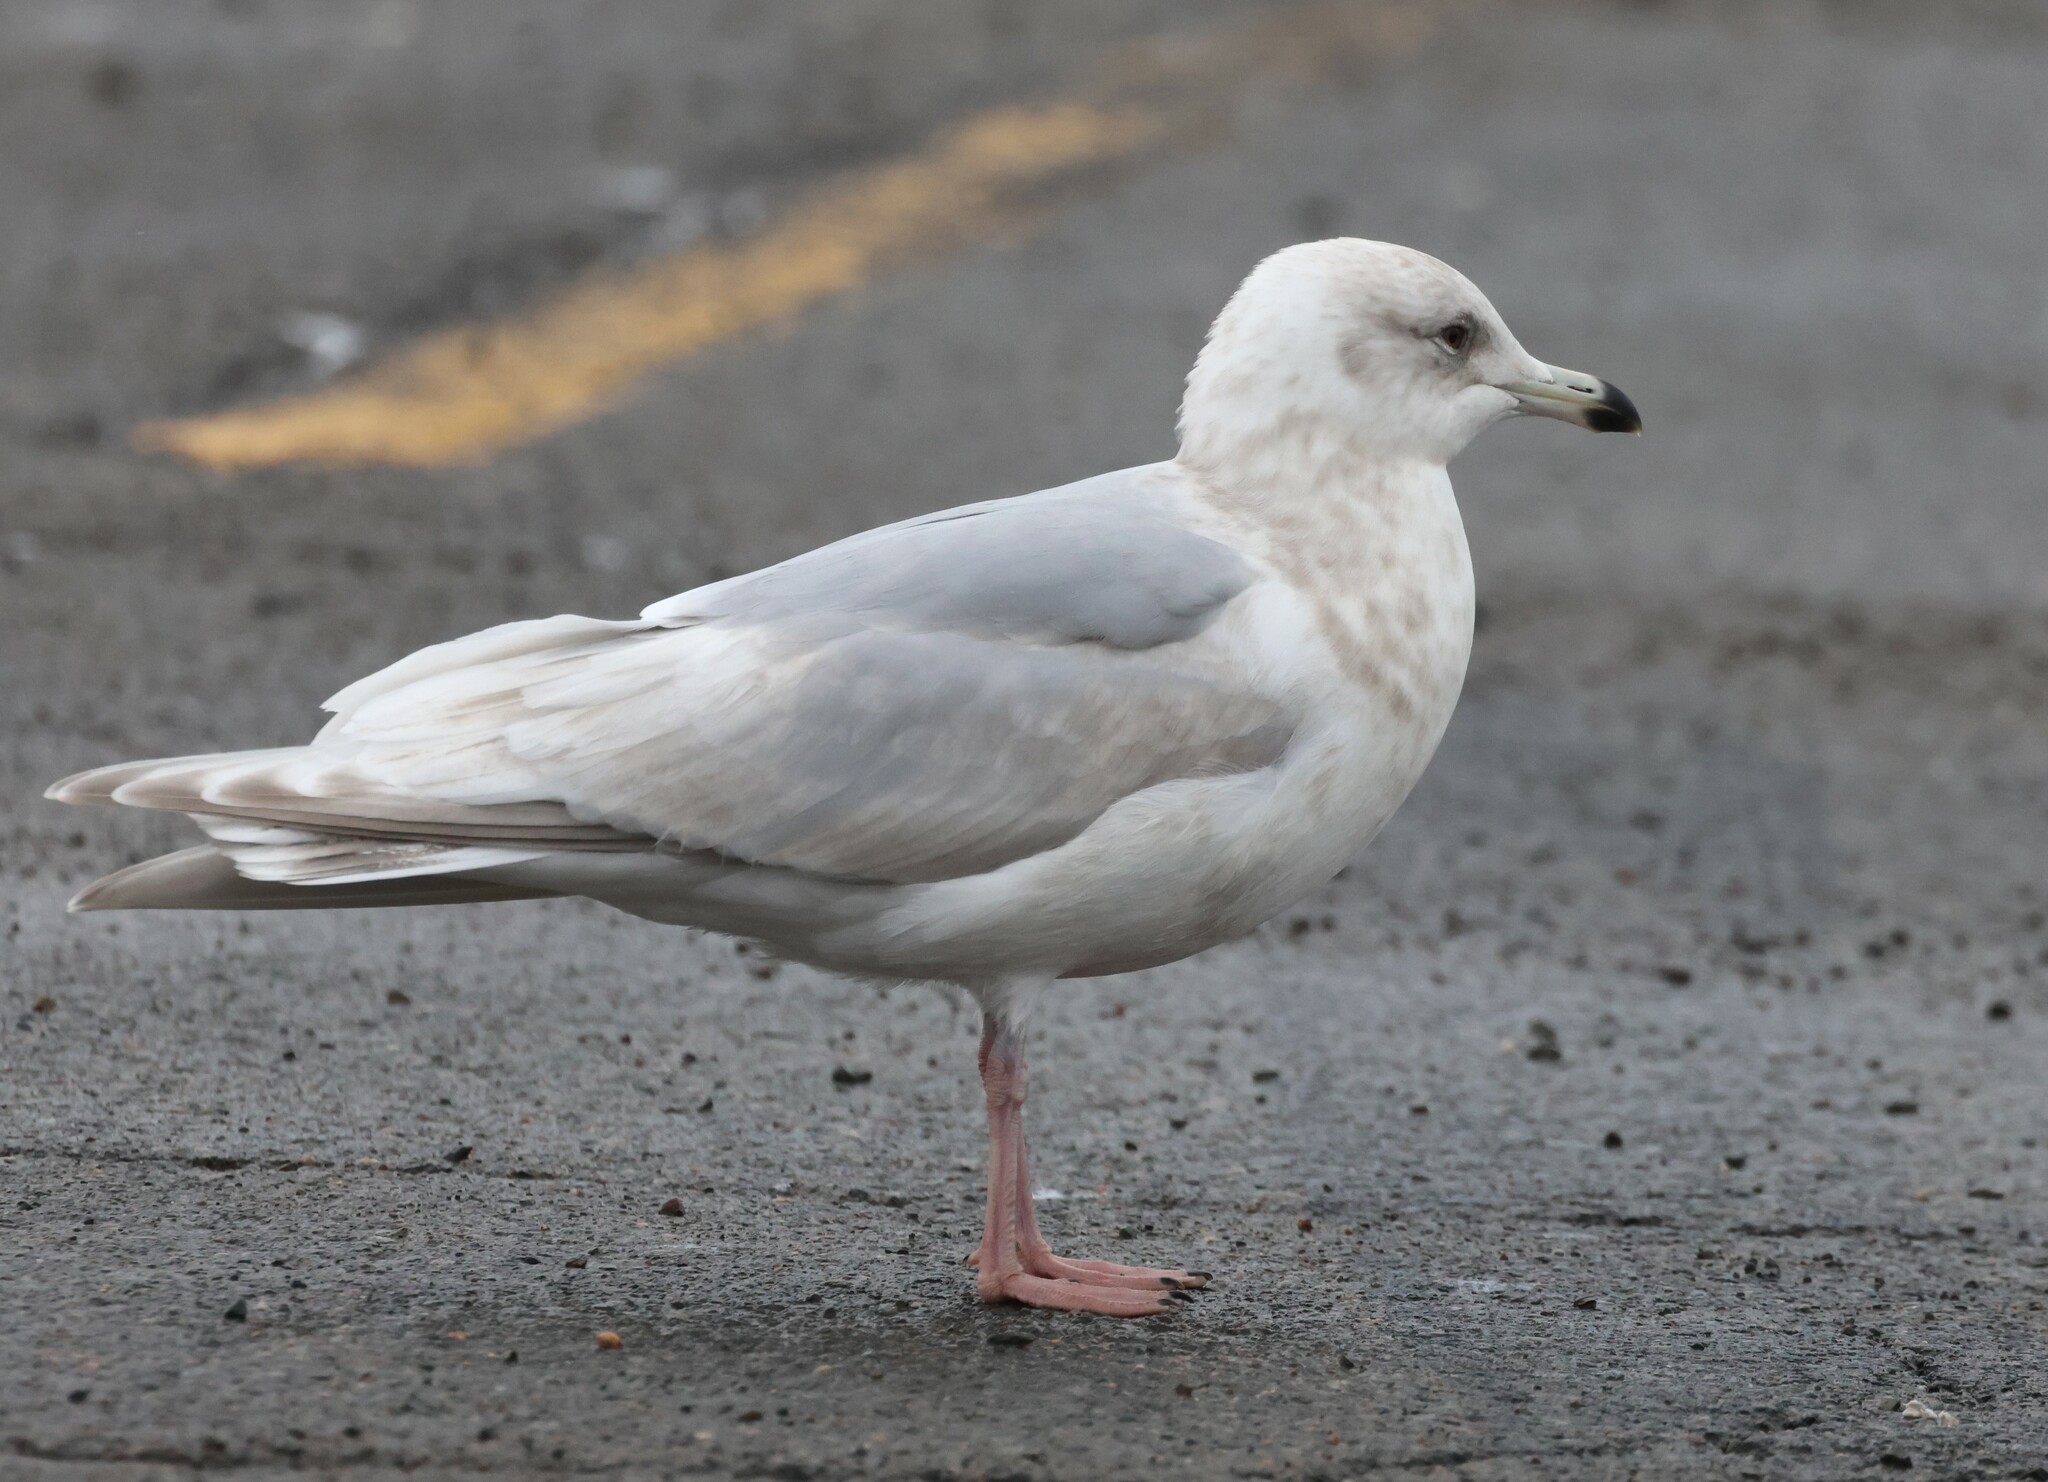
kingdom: Animalia
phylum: Chordata
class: Aves
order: Charadriiformes
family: Laridae
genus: Larus
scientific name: Larus glaucoides
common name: Iceland gull
